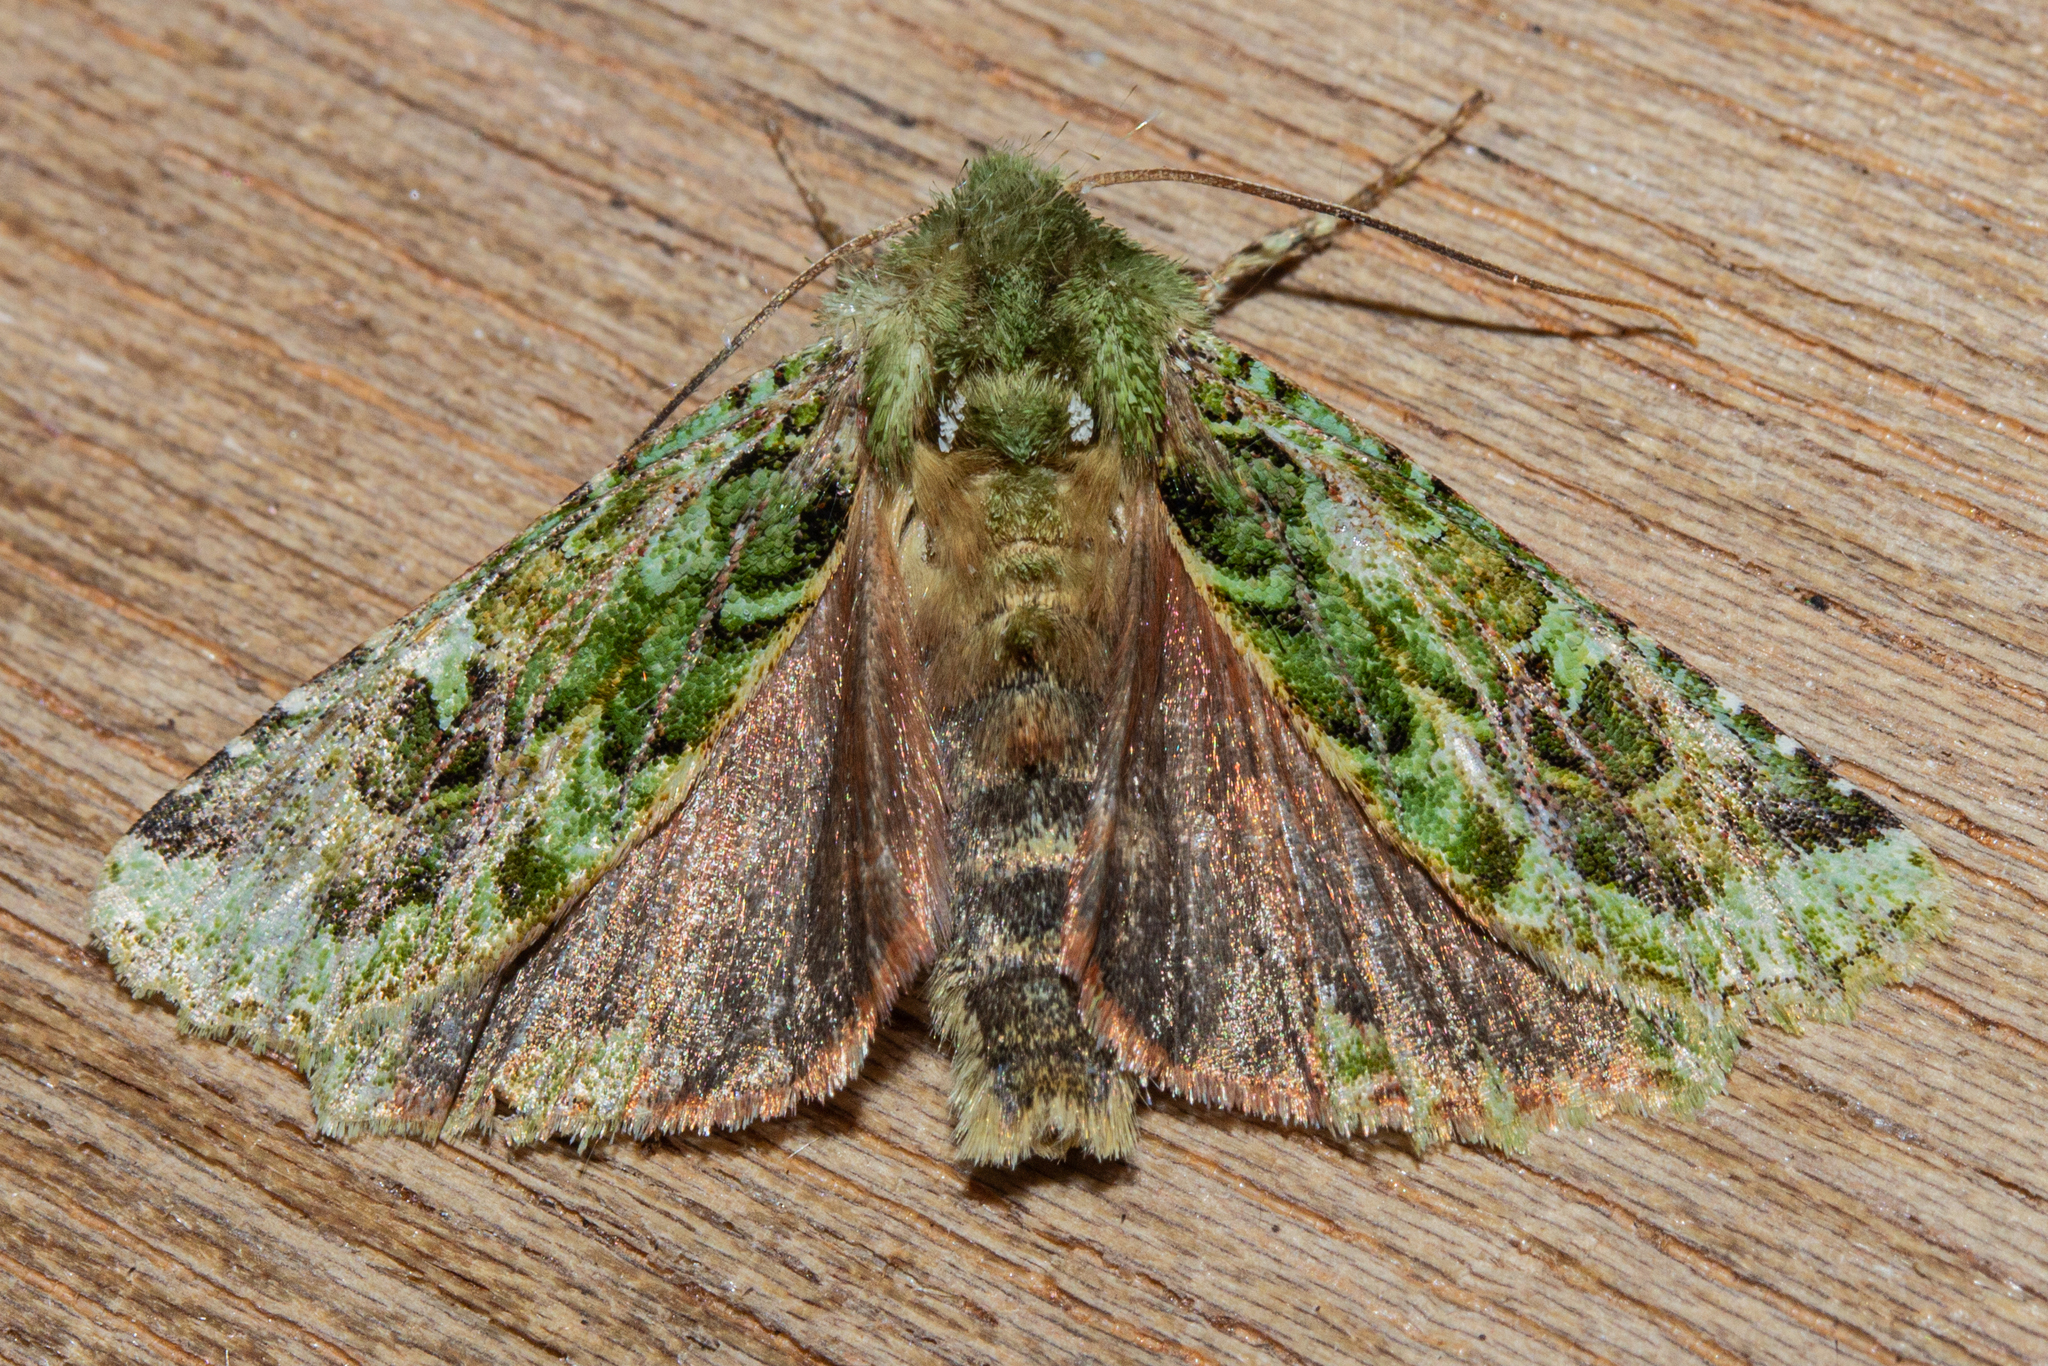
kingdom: Animalia
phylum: Arthropoda
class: Insecta
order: Lepidoptera
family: Noctuidae
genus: Feredayia
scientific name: Feredayia grammosa
